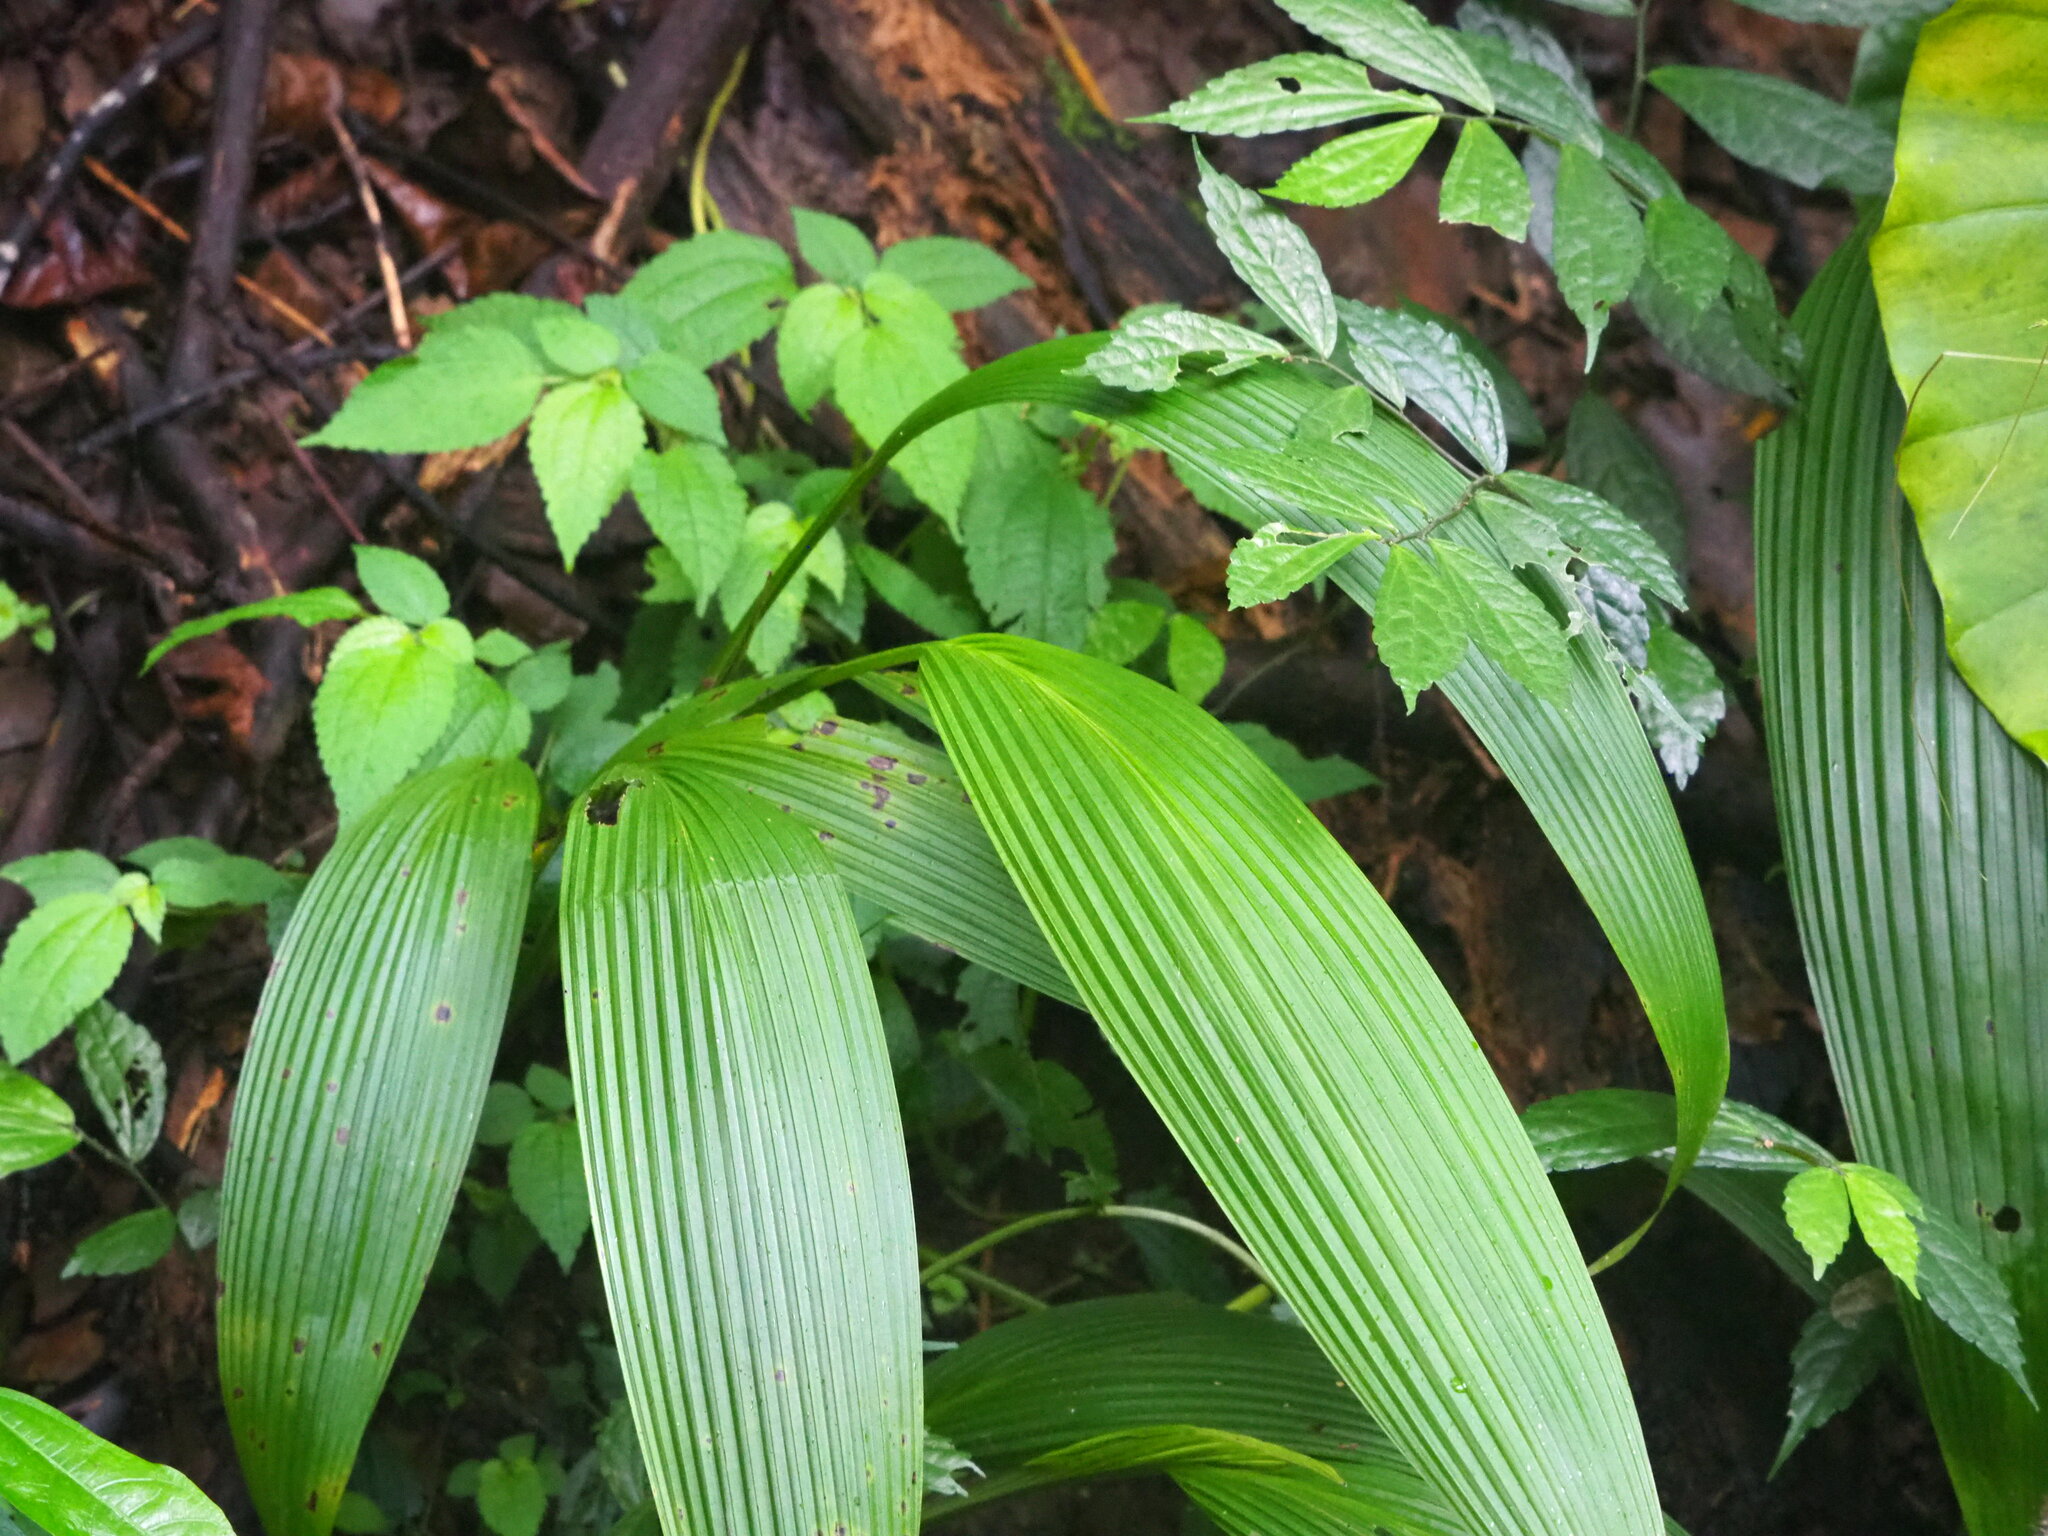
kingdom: Plantae
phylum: Tracheophyta
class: Liliopsida
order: Asparagales
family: Hypoxidaceae
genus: Curculigo
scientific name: Curculigo capitulata
